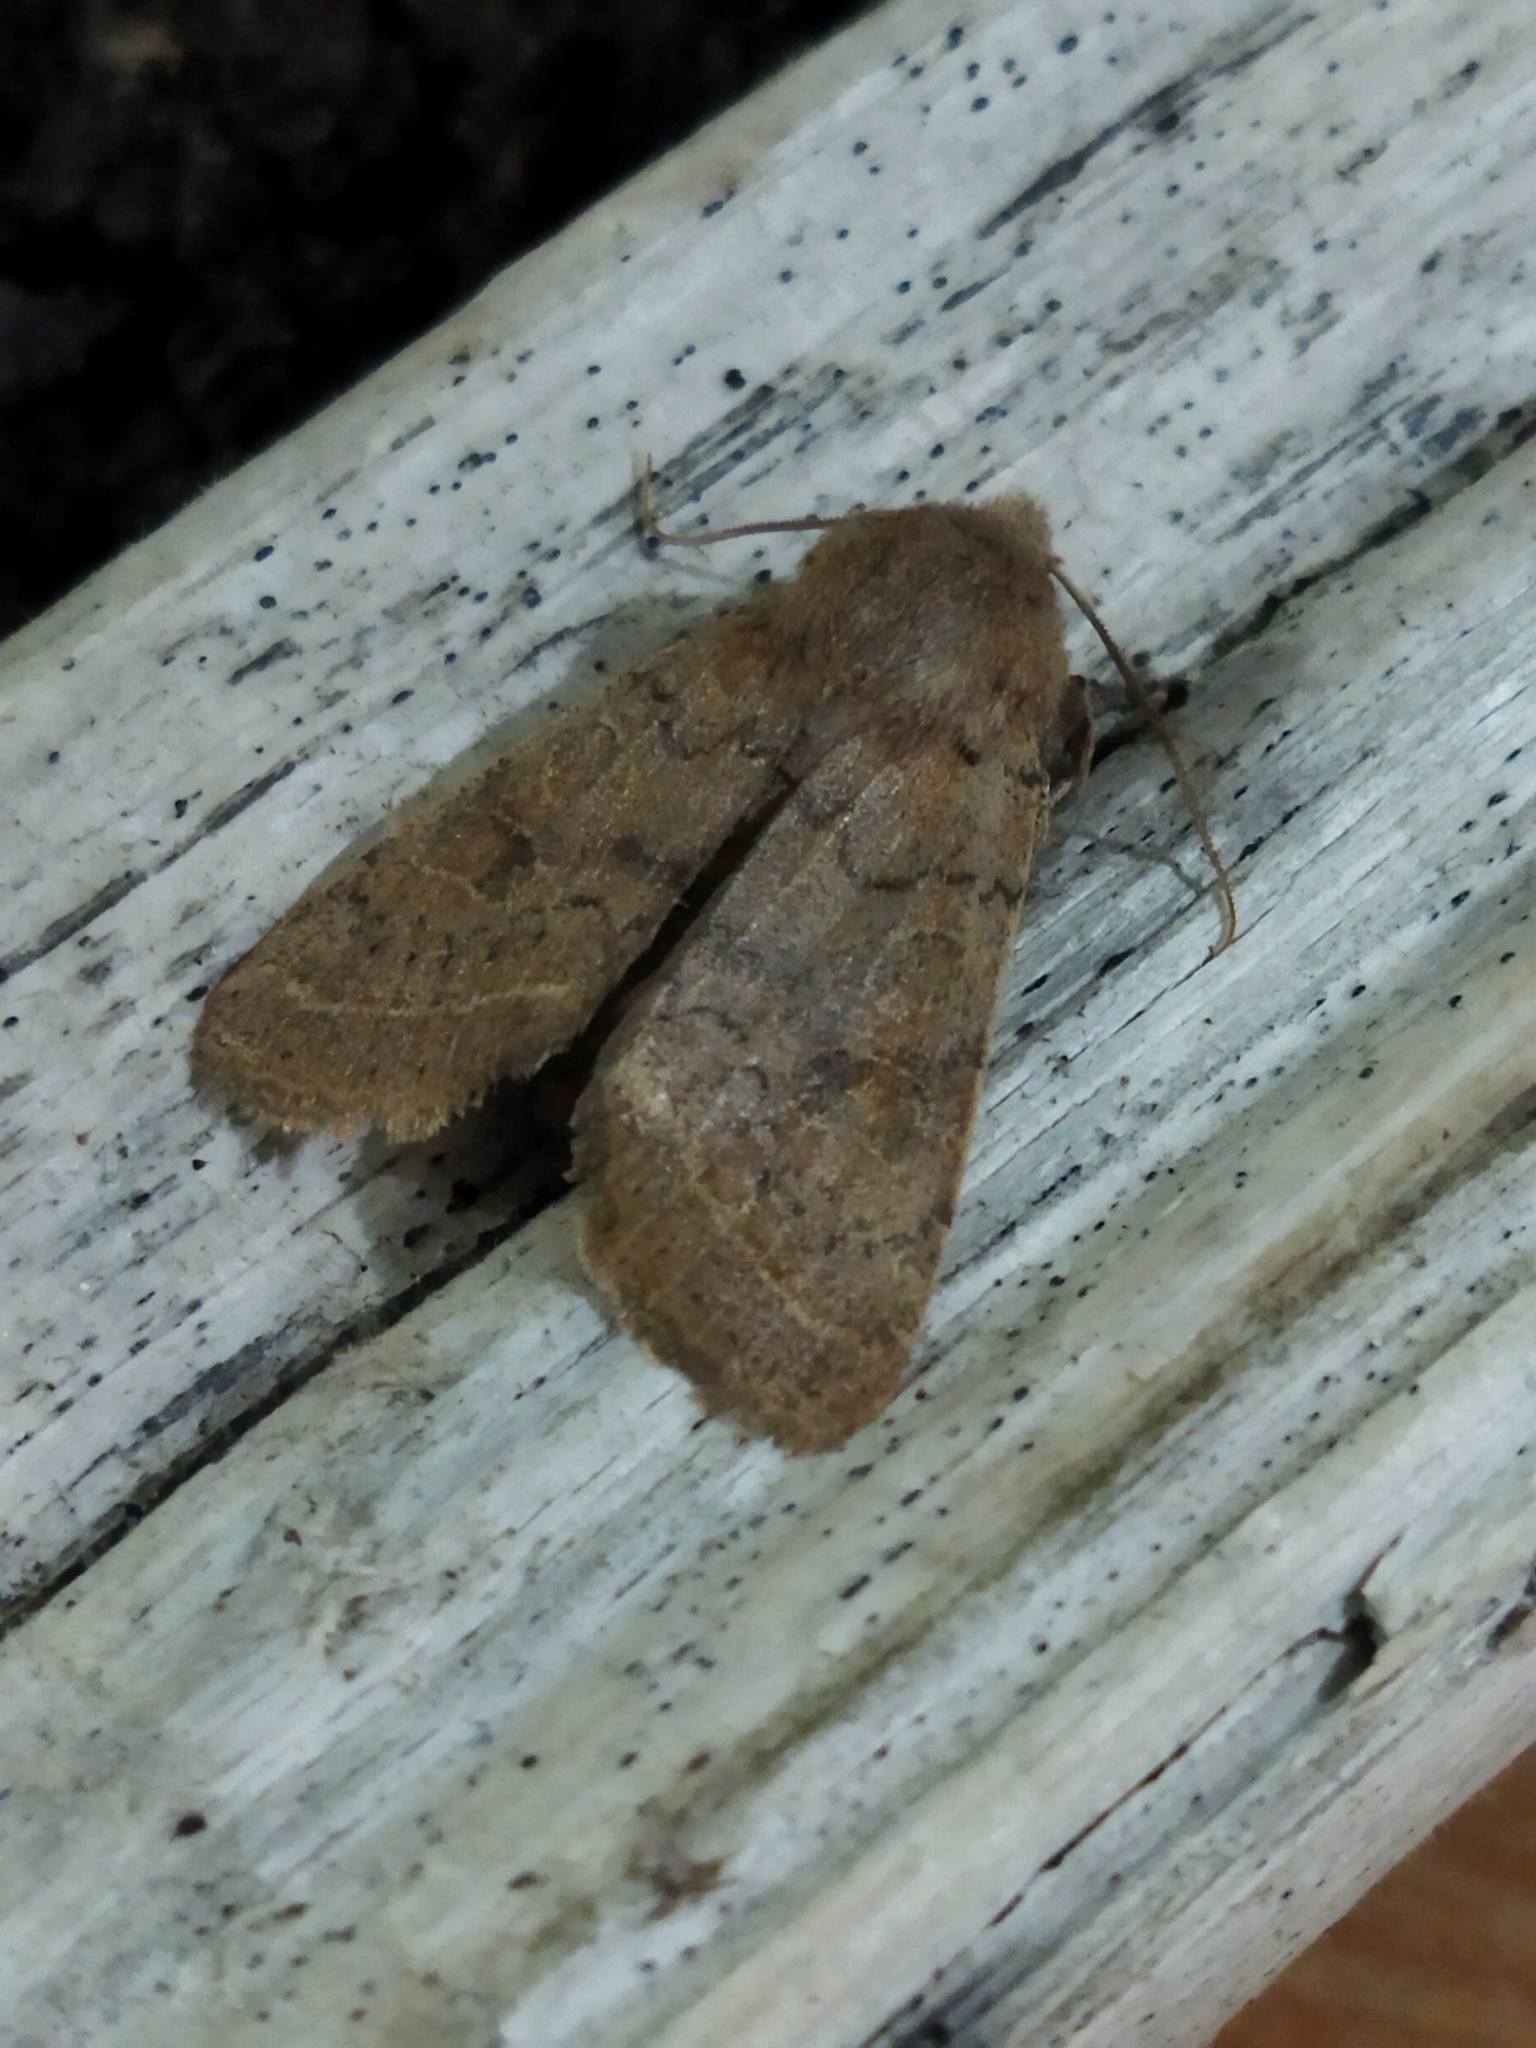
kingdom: Animalia
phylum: Arthropoda
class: Insecta
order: Lepidoptera
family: Noctuidae
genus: Orthosia
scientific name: Orthosia cerasi
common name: Common quaker
